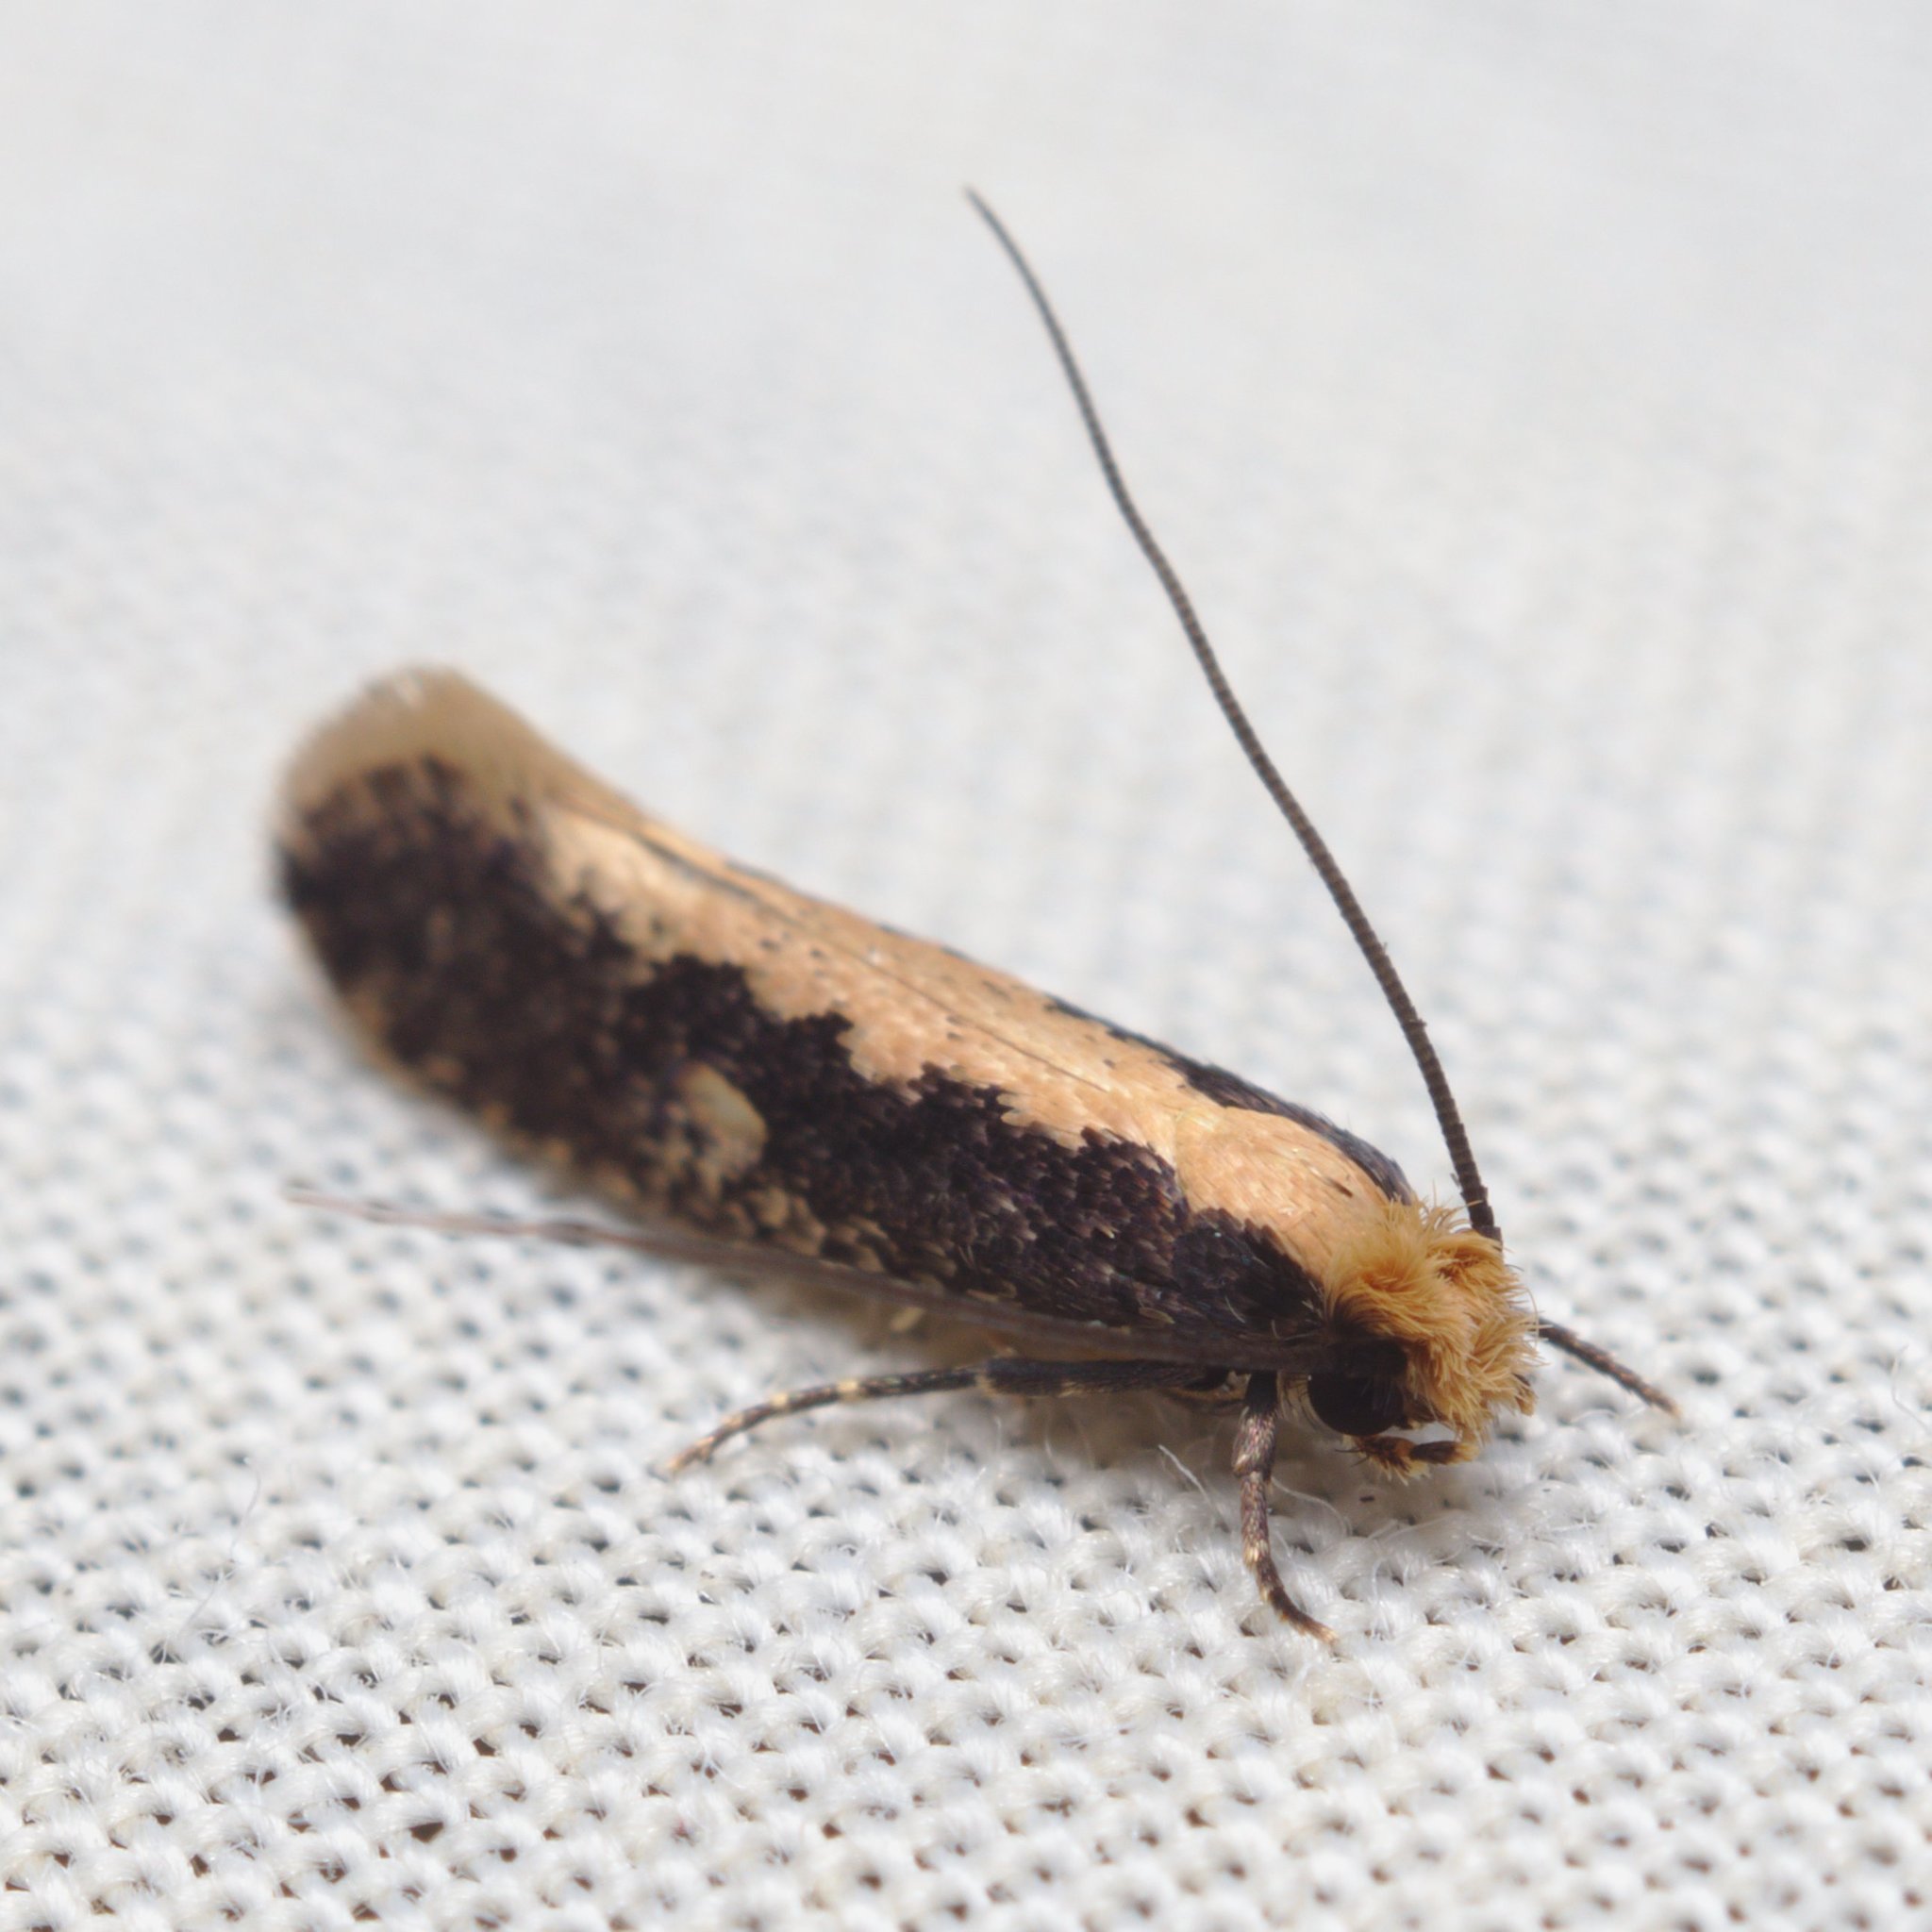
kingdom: Animalia
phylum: Arthropoda
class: Insecta
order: Lepidoptera
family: Tineidae
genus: Monopis
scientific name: Monopis crocicapitella
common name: Moth
